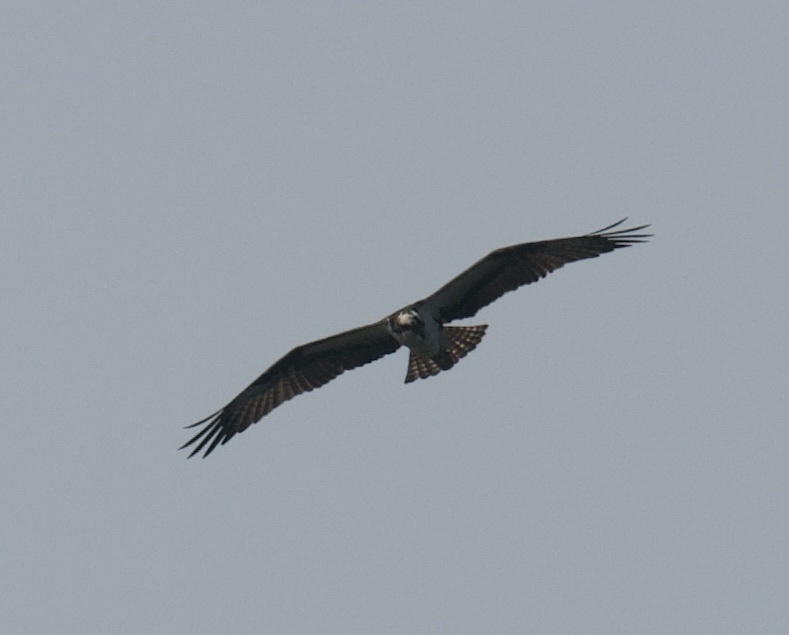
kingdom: Animalia
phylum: Chordata
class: Aves
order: Accipitriformes
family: Pandionidae
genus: Pandion
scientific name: Pandion haliaetus
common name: Osprey
